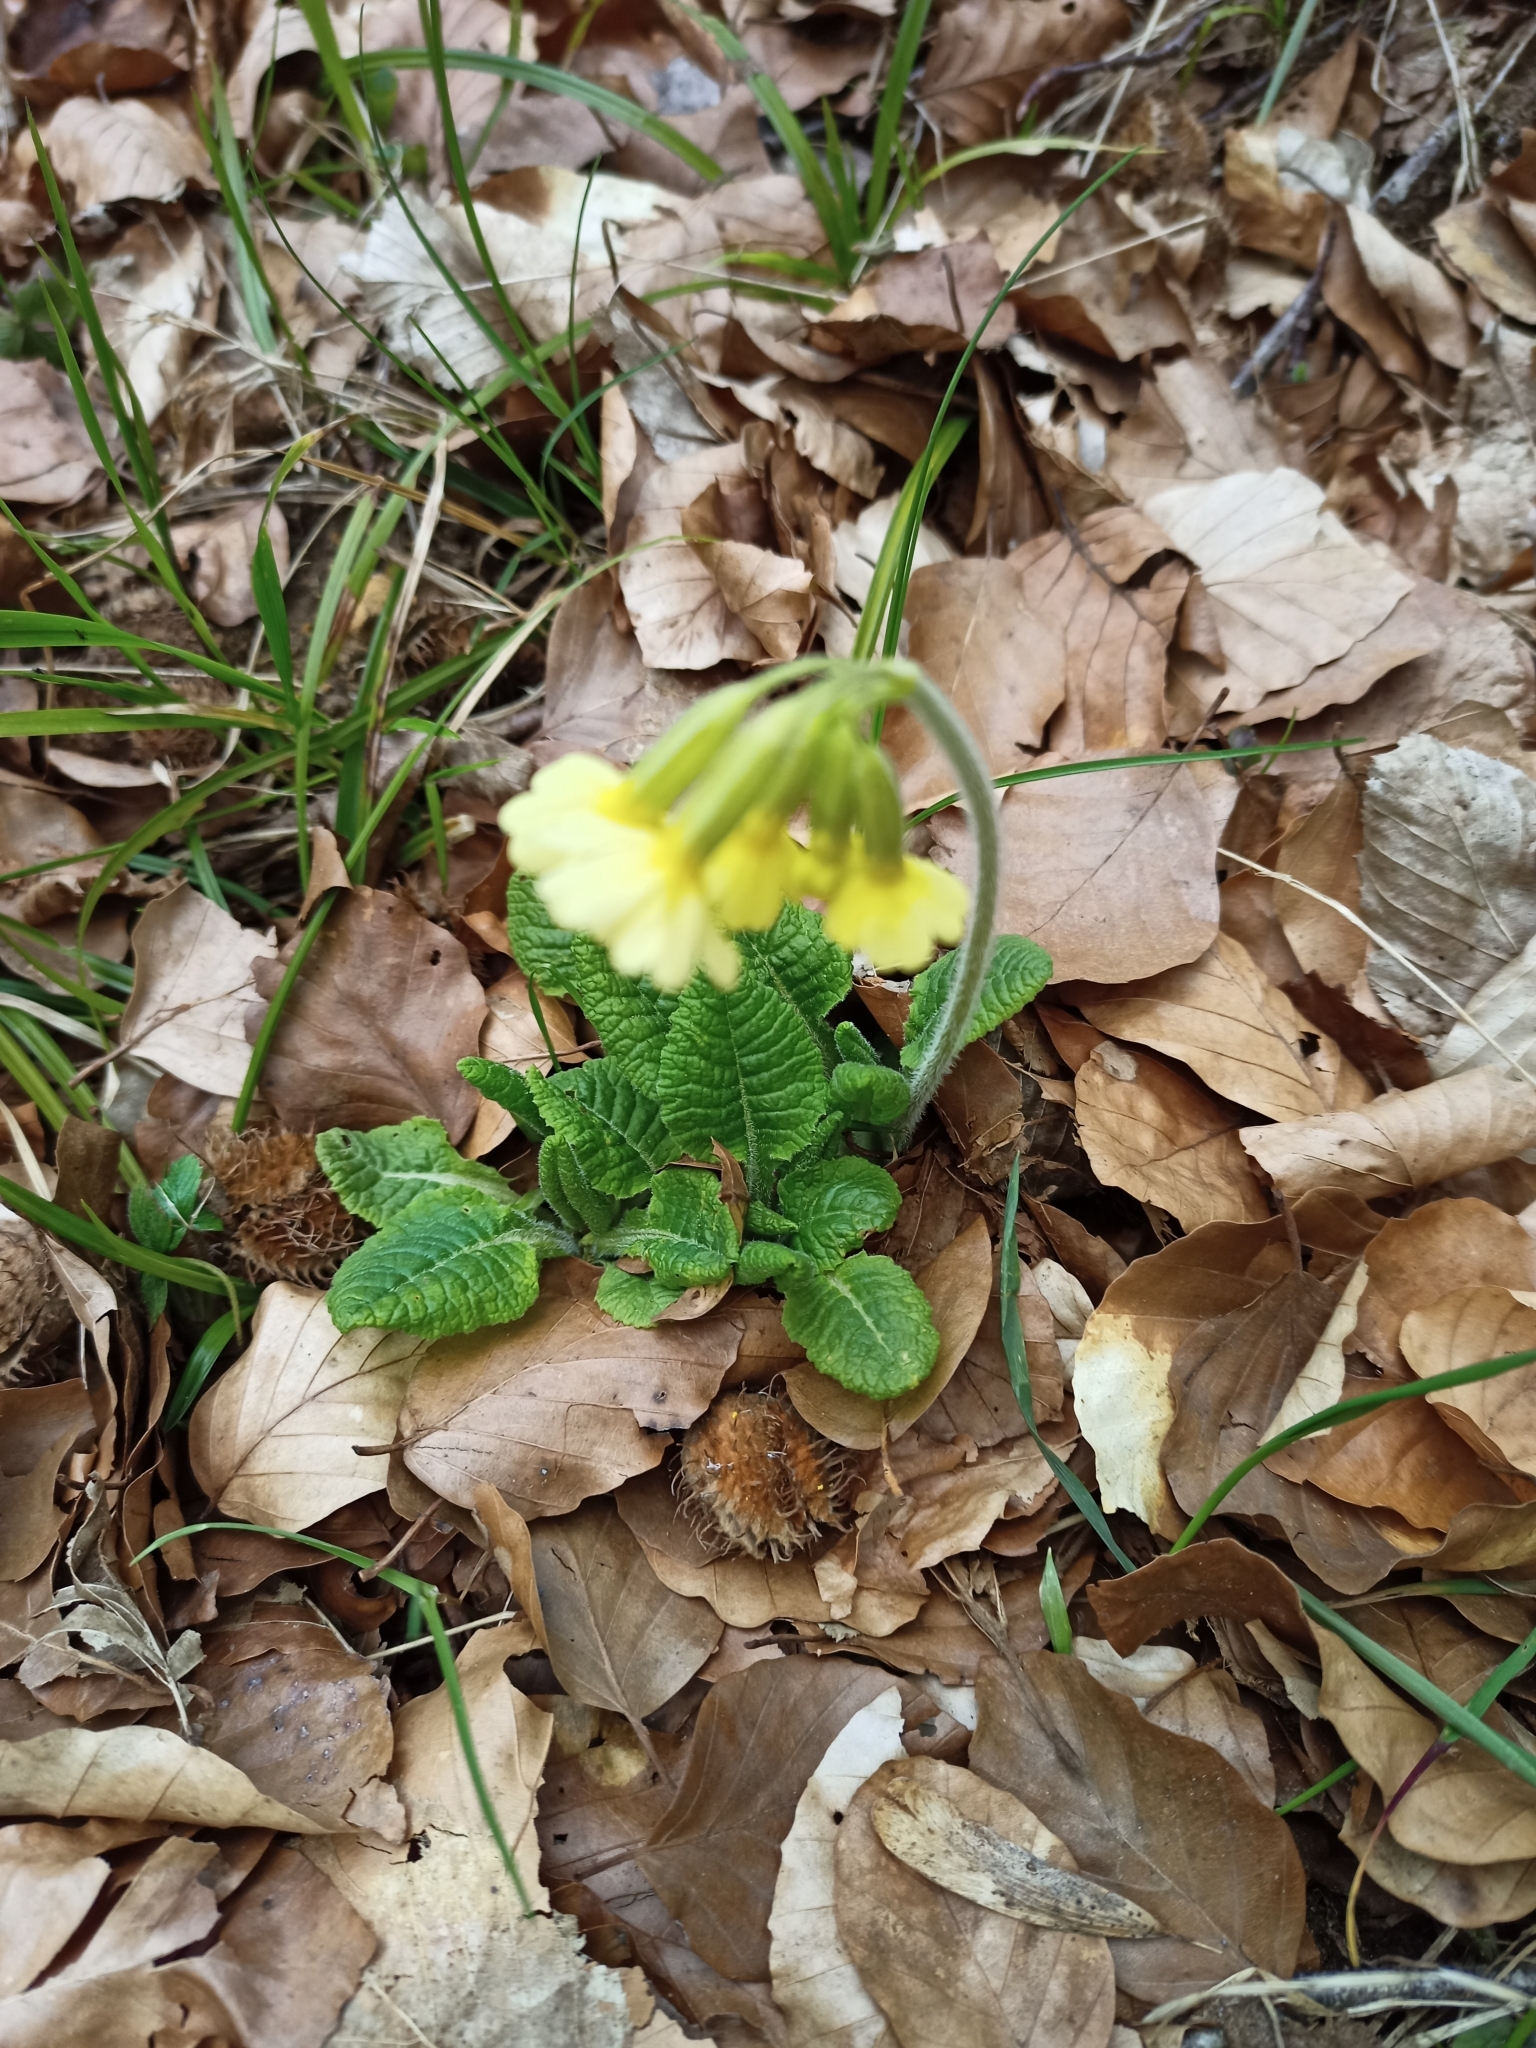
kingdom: Plantae
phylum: Tracheophyta
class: Magnoliopsida
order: Ericales
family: Primulaceae
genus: Primula
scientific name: Primula elatior
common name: Oxlip
